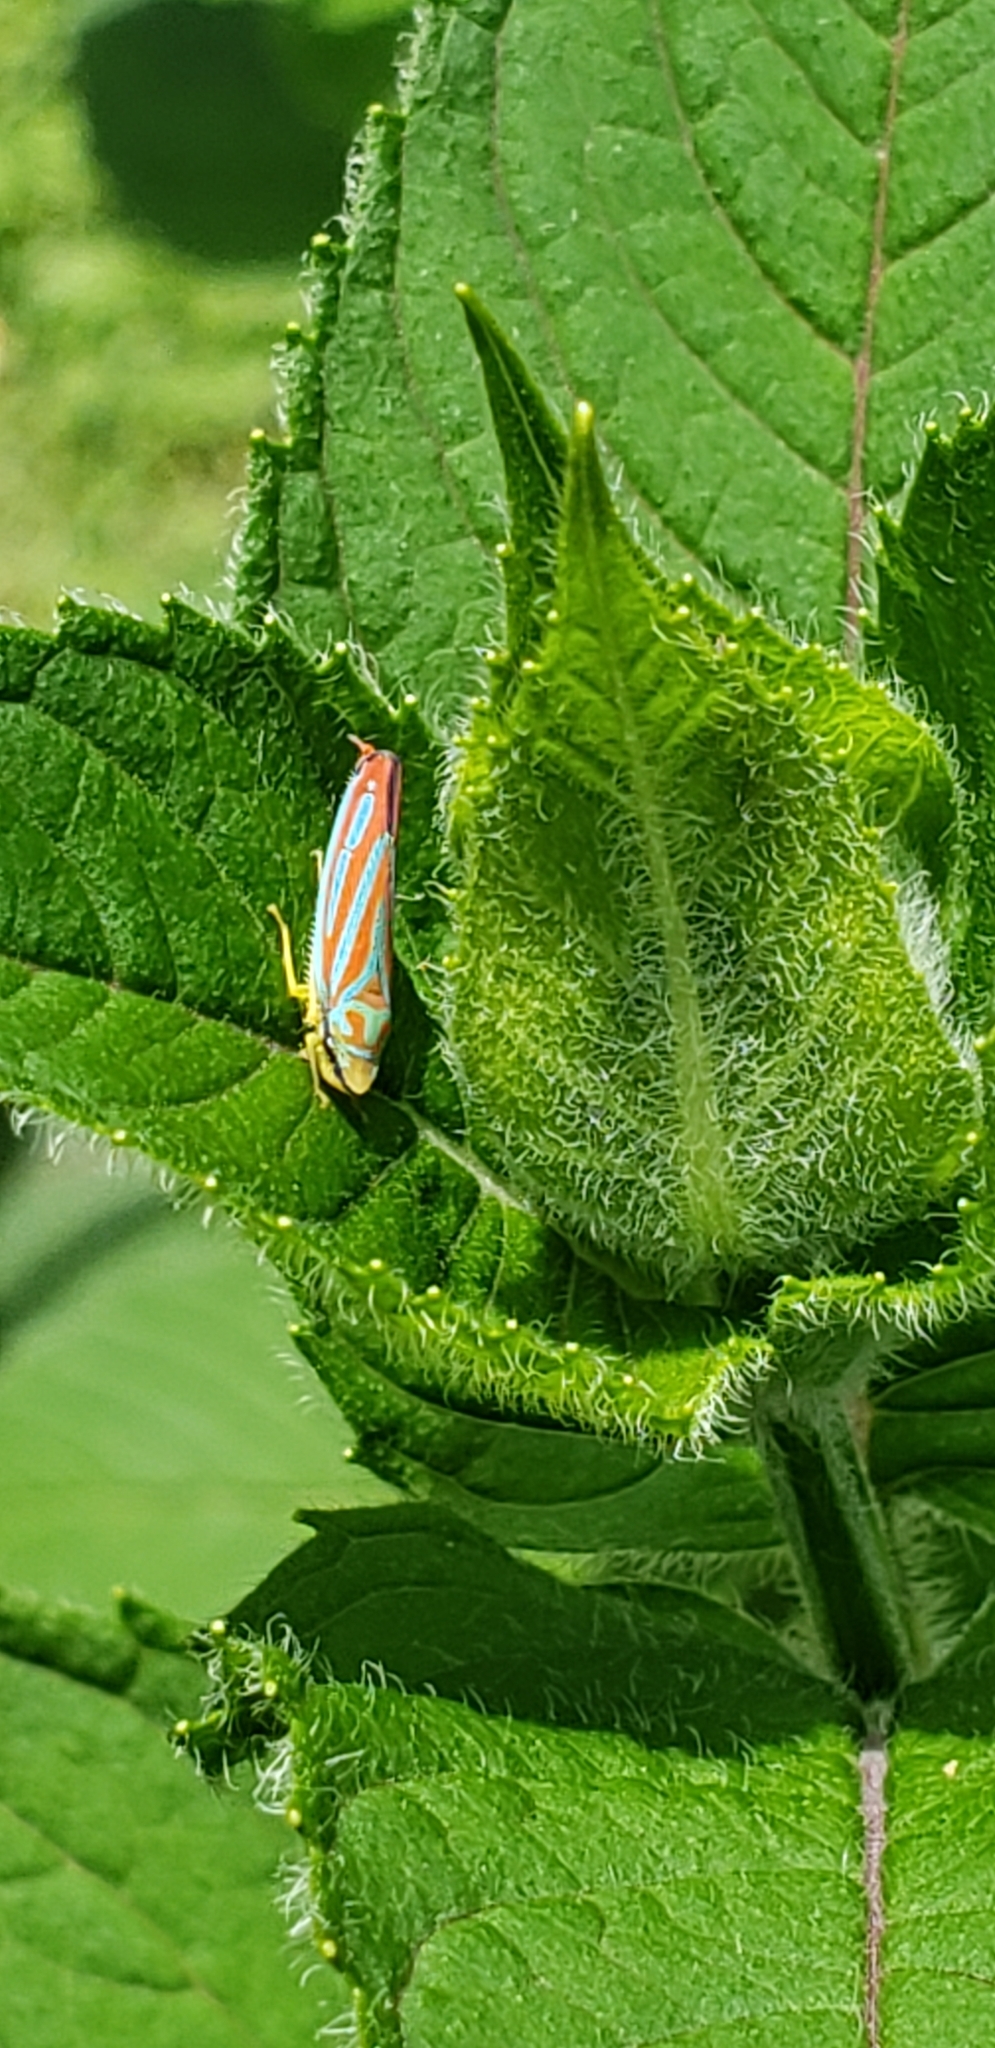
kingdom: Animalia
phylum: Arthropoda
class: Insecta
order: Hemiptera
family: Cicadellidae
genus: Graphocephala
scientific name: Graphocephala coccinea
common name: Candy-striped leafhopper
